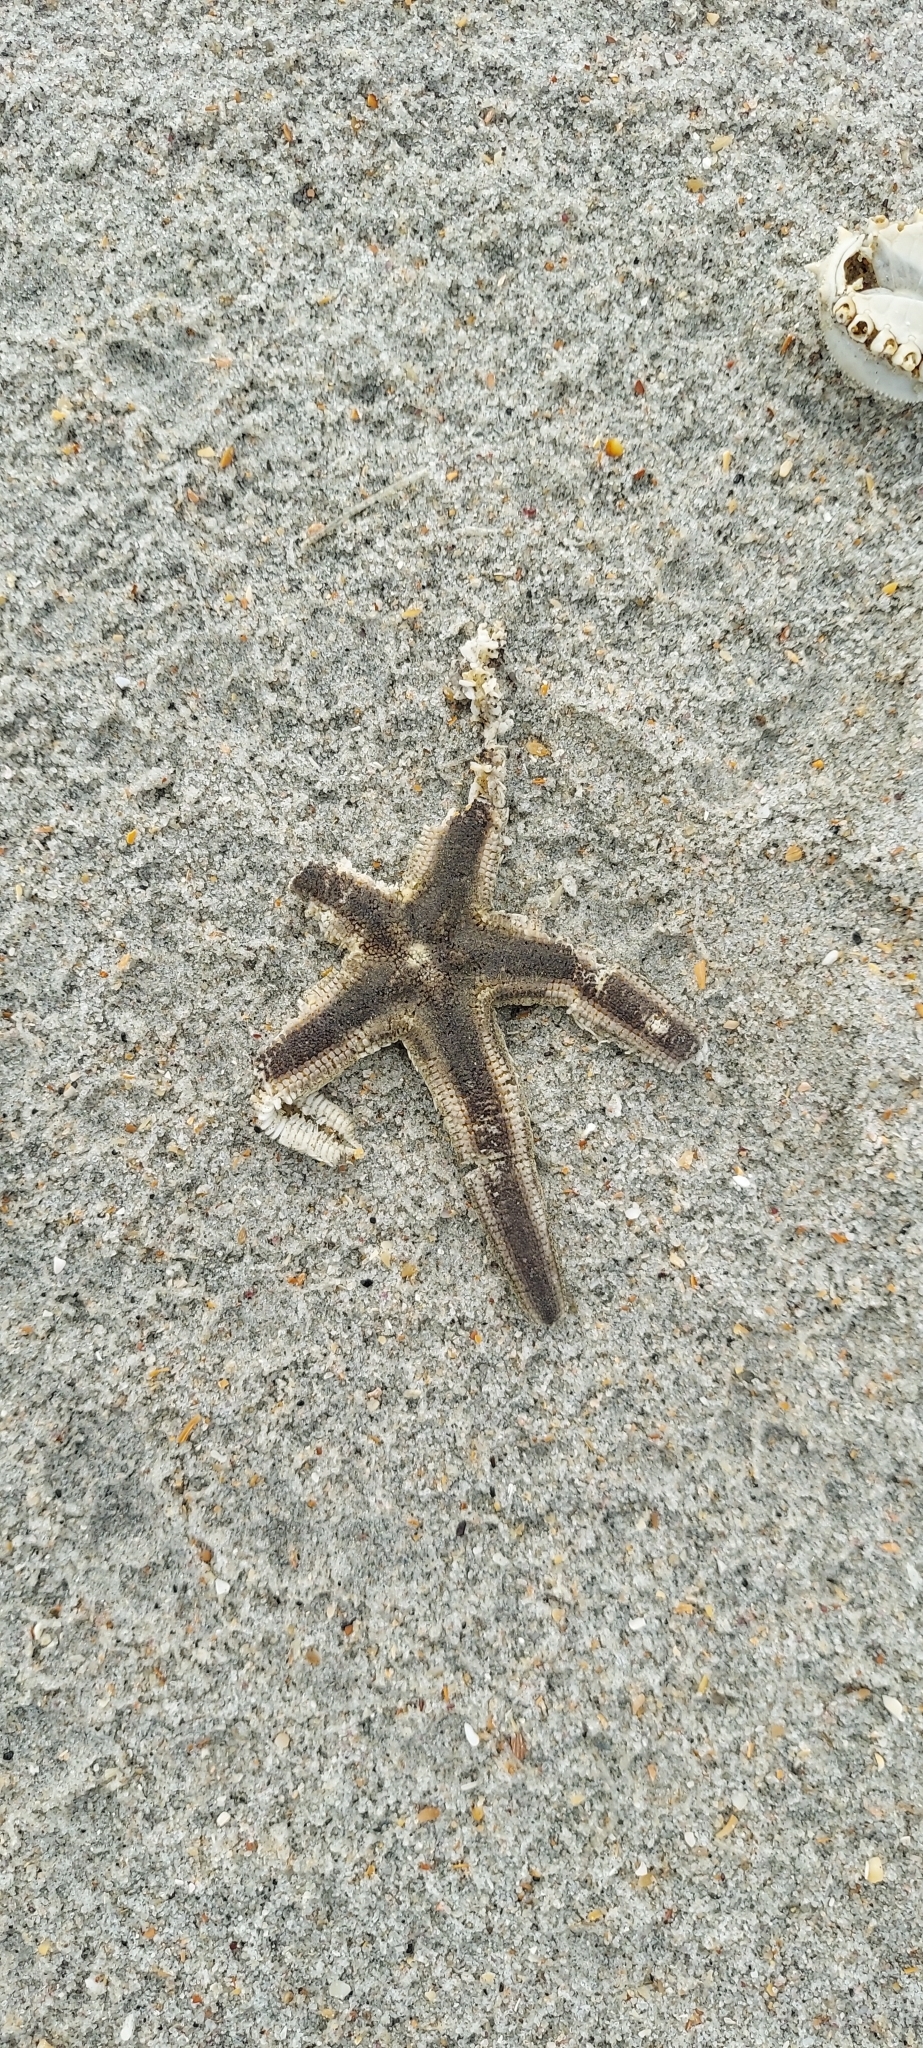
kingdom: Animalia
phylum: Echinodermata
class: Asteroidea
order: Paxillosida
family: Luidiidae
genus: Luidia
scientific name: Luidia clathrata
